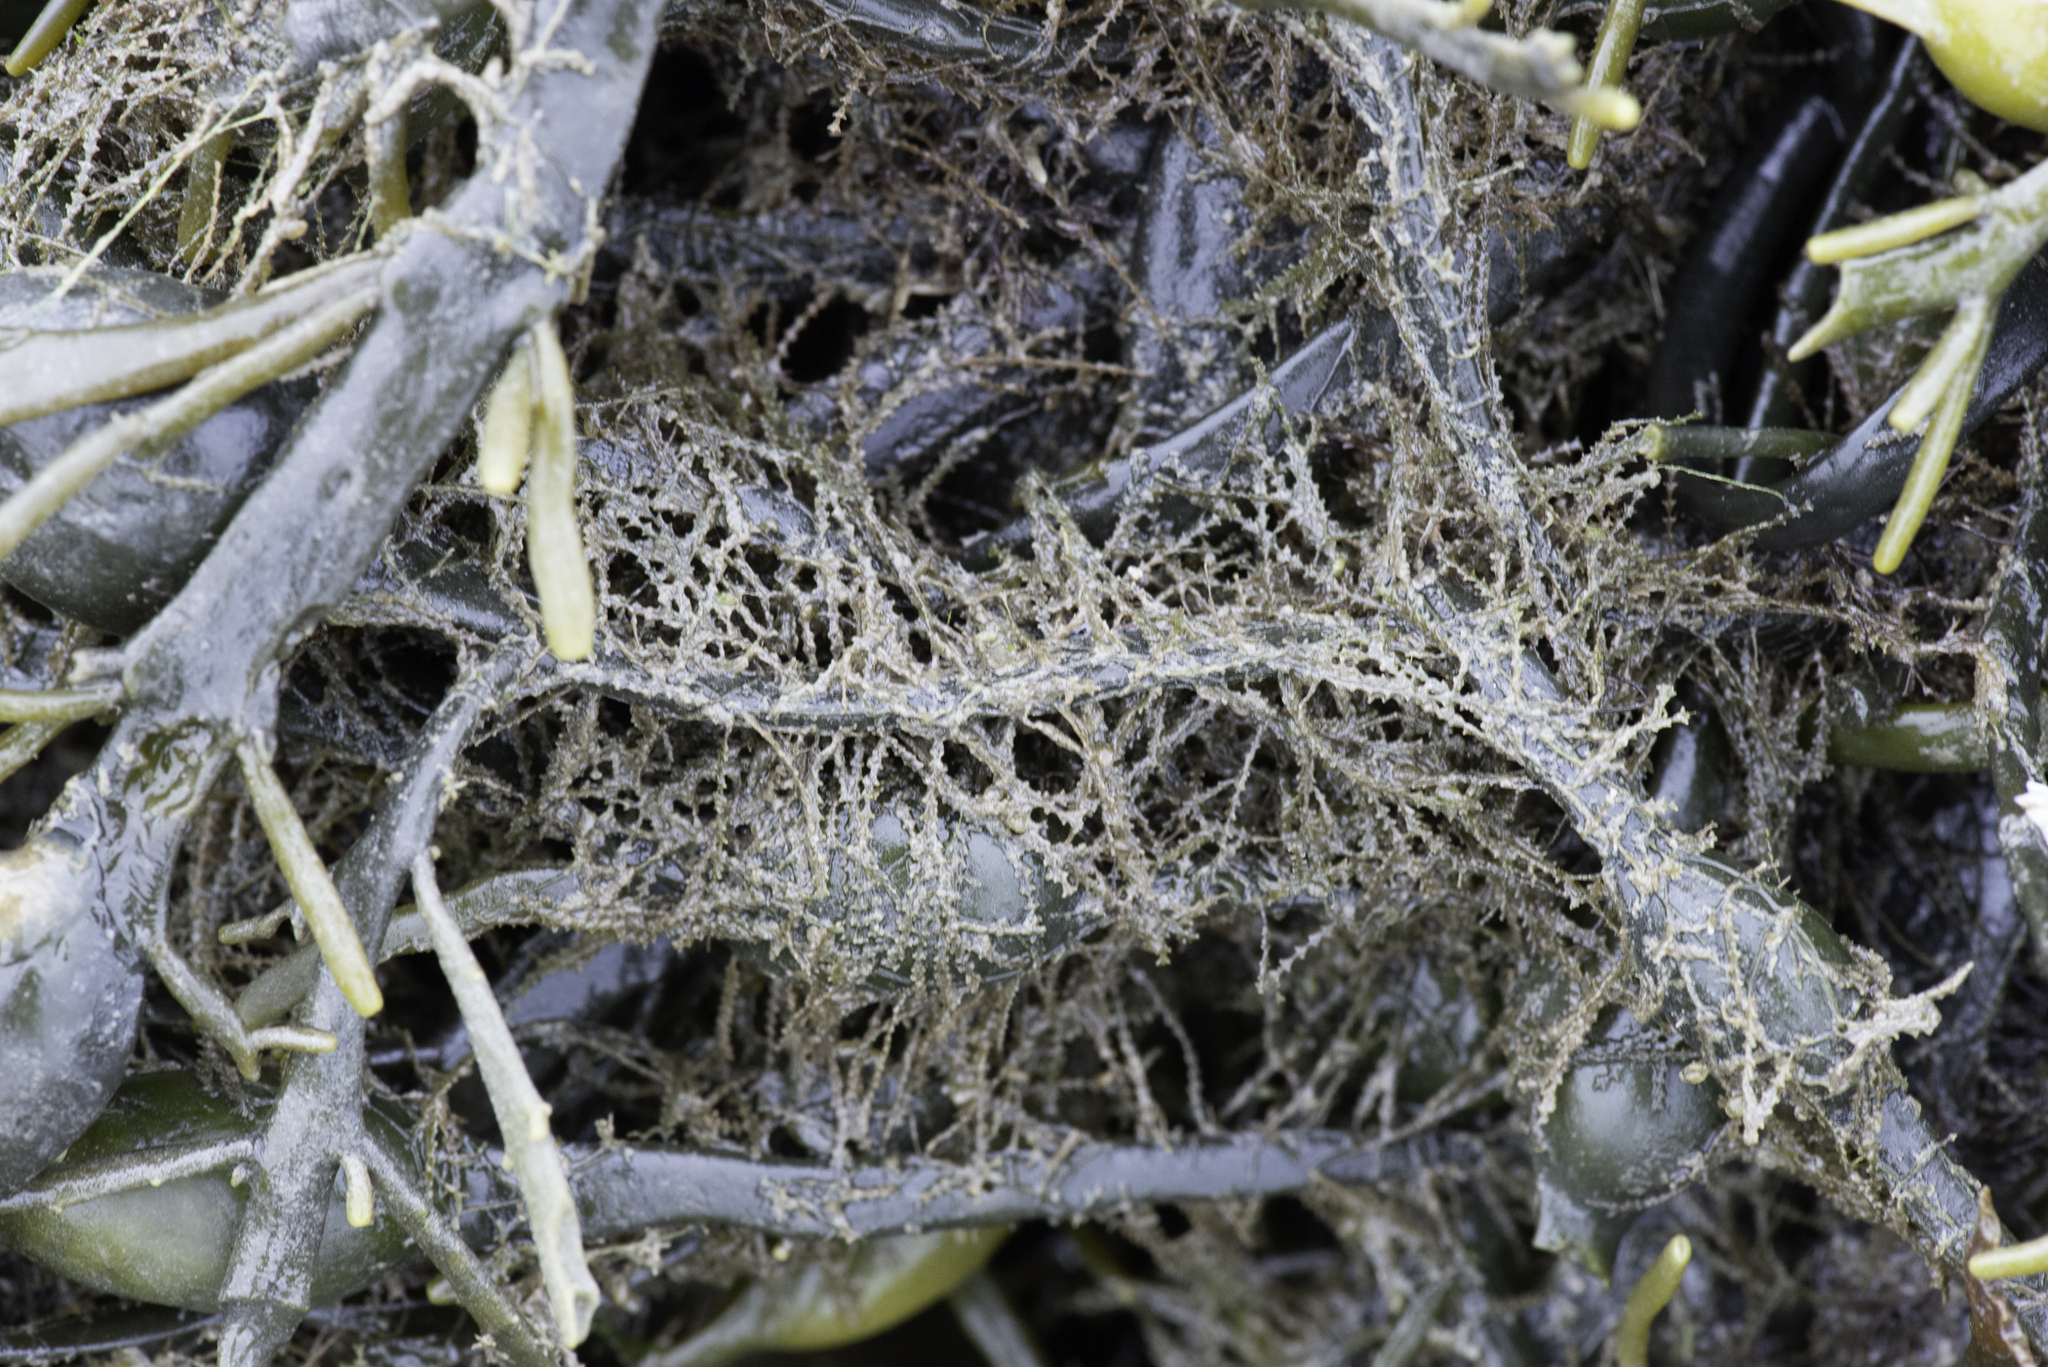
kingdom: Animalia
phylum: Cnidaria
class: Hydrozoa
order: Leptothecata
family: Sertulariidae
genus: Dynamena
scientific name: Dynamena pumila
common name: Sea oak
